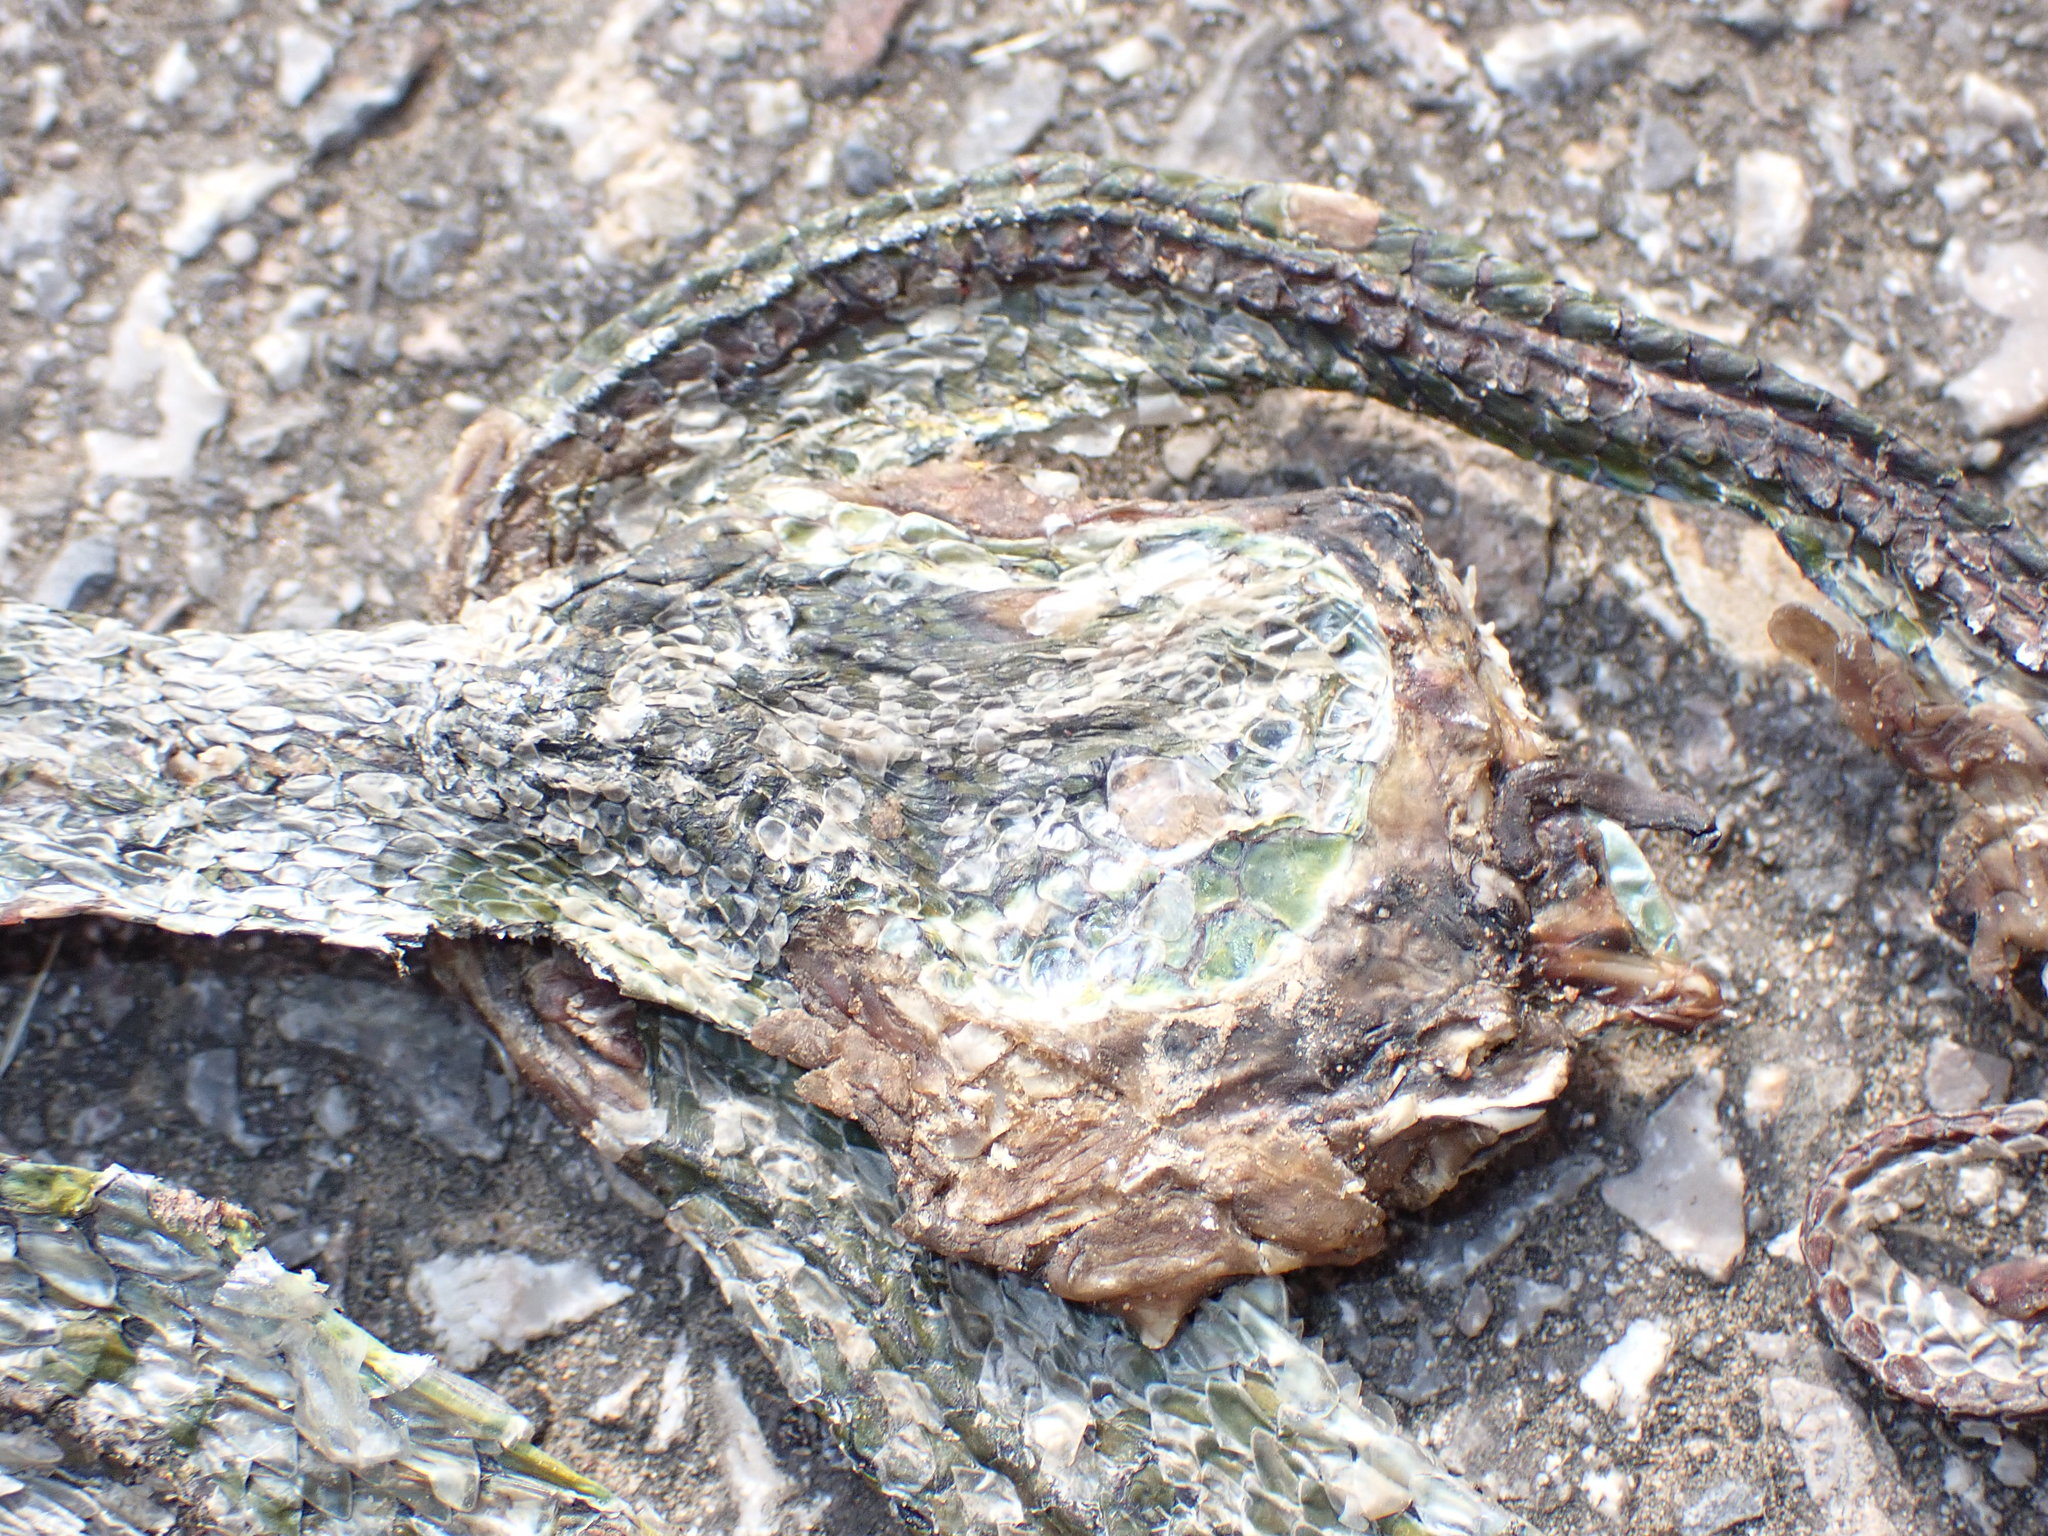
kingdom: Animalia
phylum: Chordata
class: Squamata
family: Viperidae
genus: Trimeresurus
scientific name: Trimeresurus albolabris
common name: White-lipped pitviper
